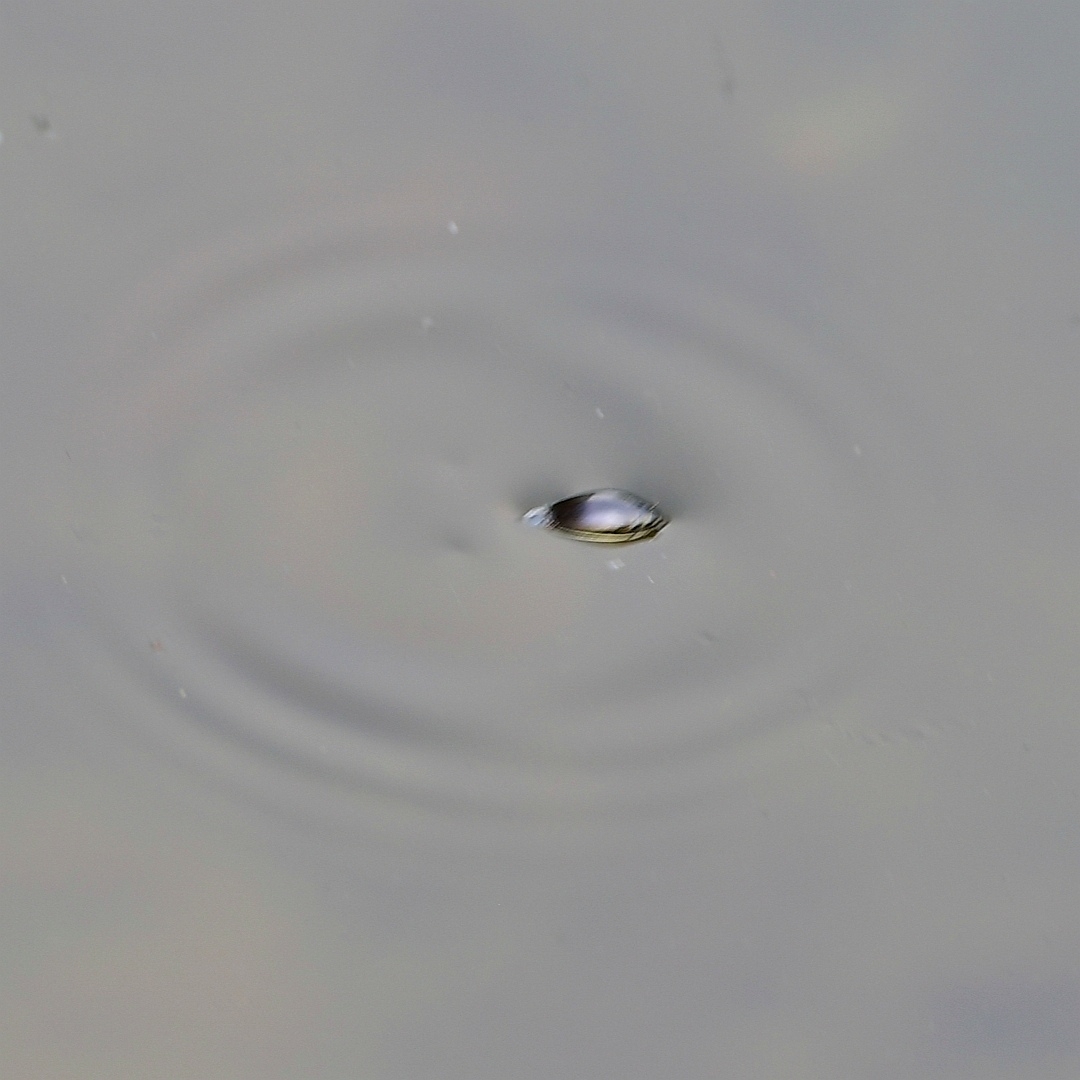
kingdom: Animalia
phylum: Arthropoda
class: Insecta
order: Coleoptera
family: Gyrinidae
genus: Gyrinus
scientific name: Gyrinus
